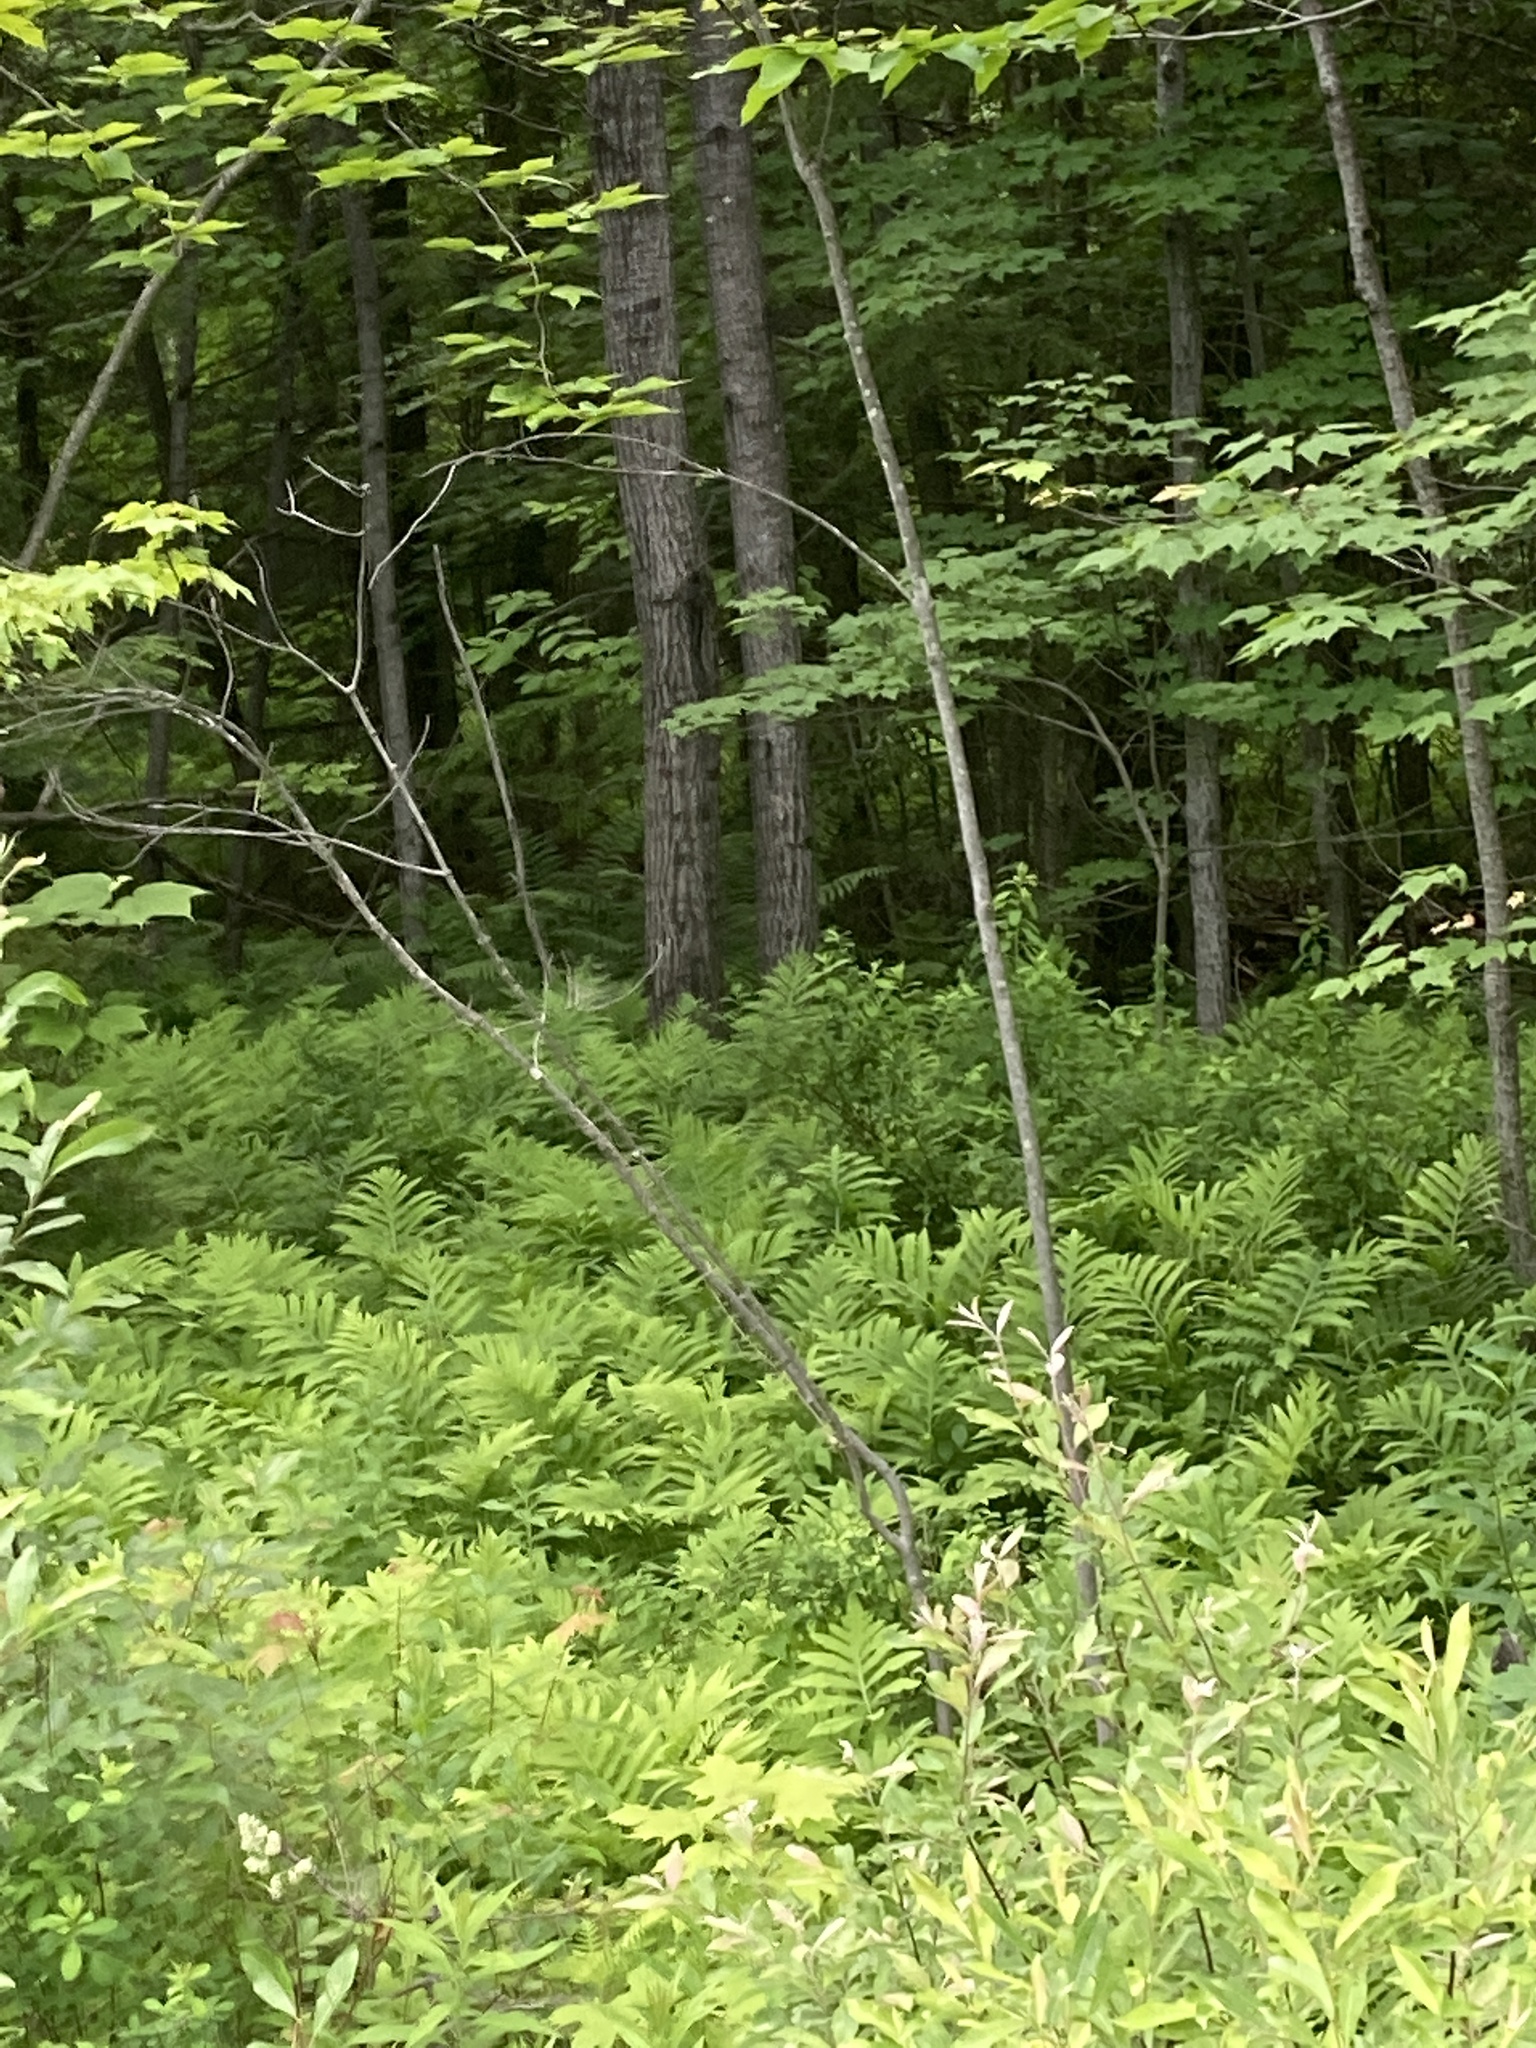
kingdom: Plantae
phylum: Tracheophyta
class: Polypodiopsida
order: Polypodiales
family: Onocleaceae
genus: Onoclea
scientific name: Onoclea sensibilis
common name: Sensitive fern
